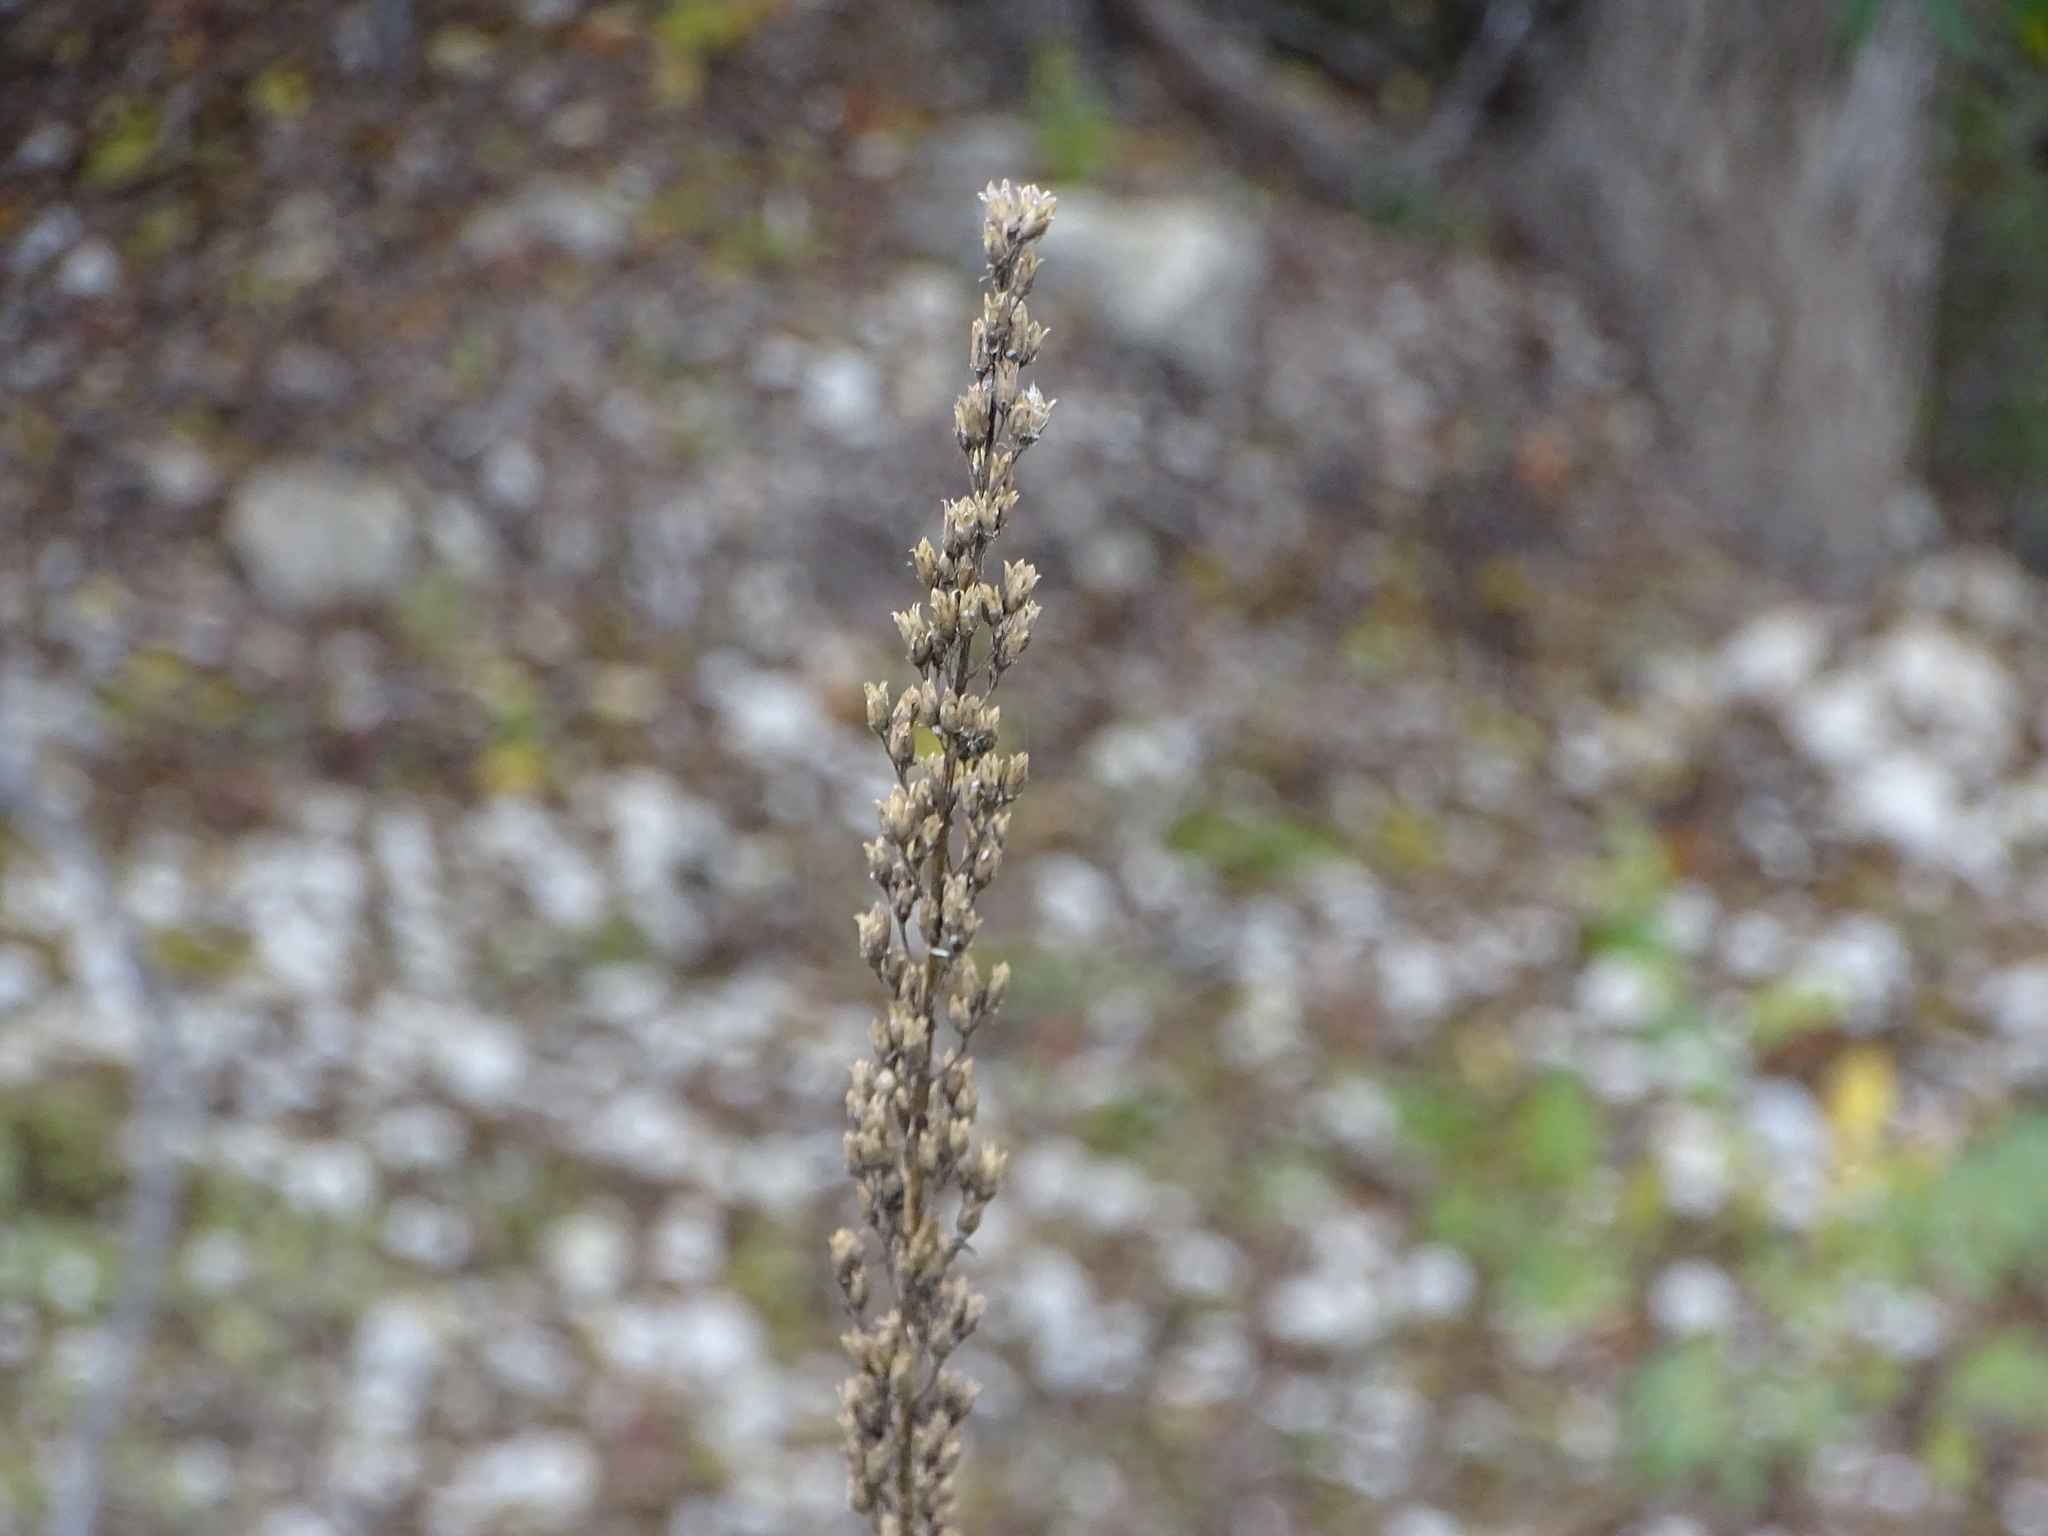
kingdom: Plantae
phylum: Tracheophyta
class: Magnoliopsida
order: Ericales
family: Polemoniaceae
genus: Ipomopsis
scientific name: Ipomopsis rubra
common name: Skyrocket
